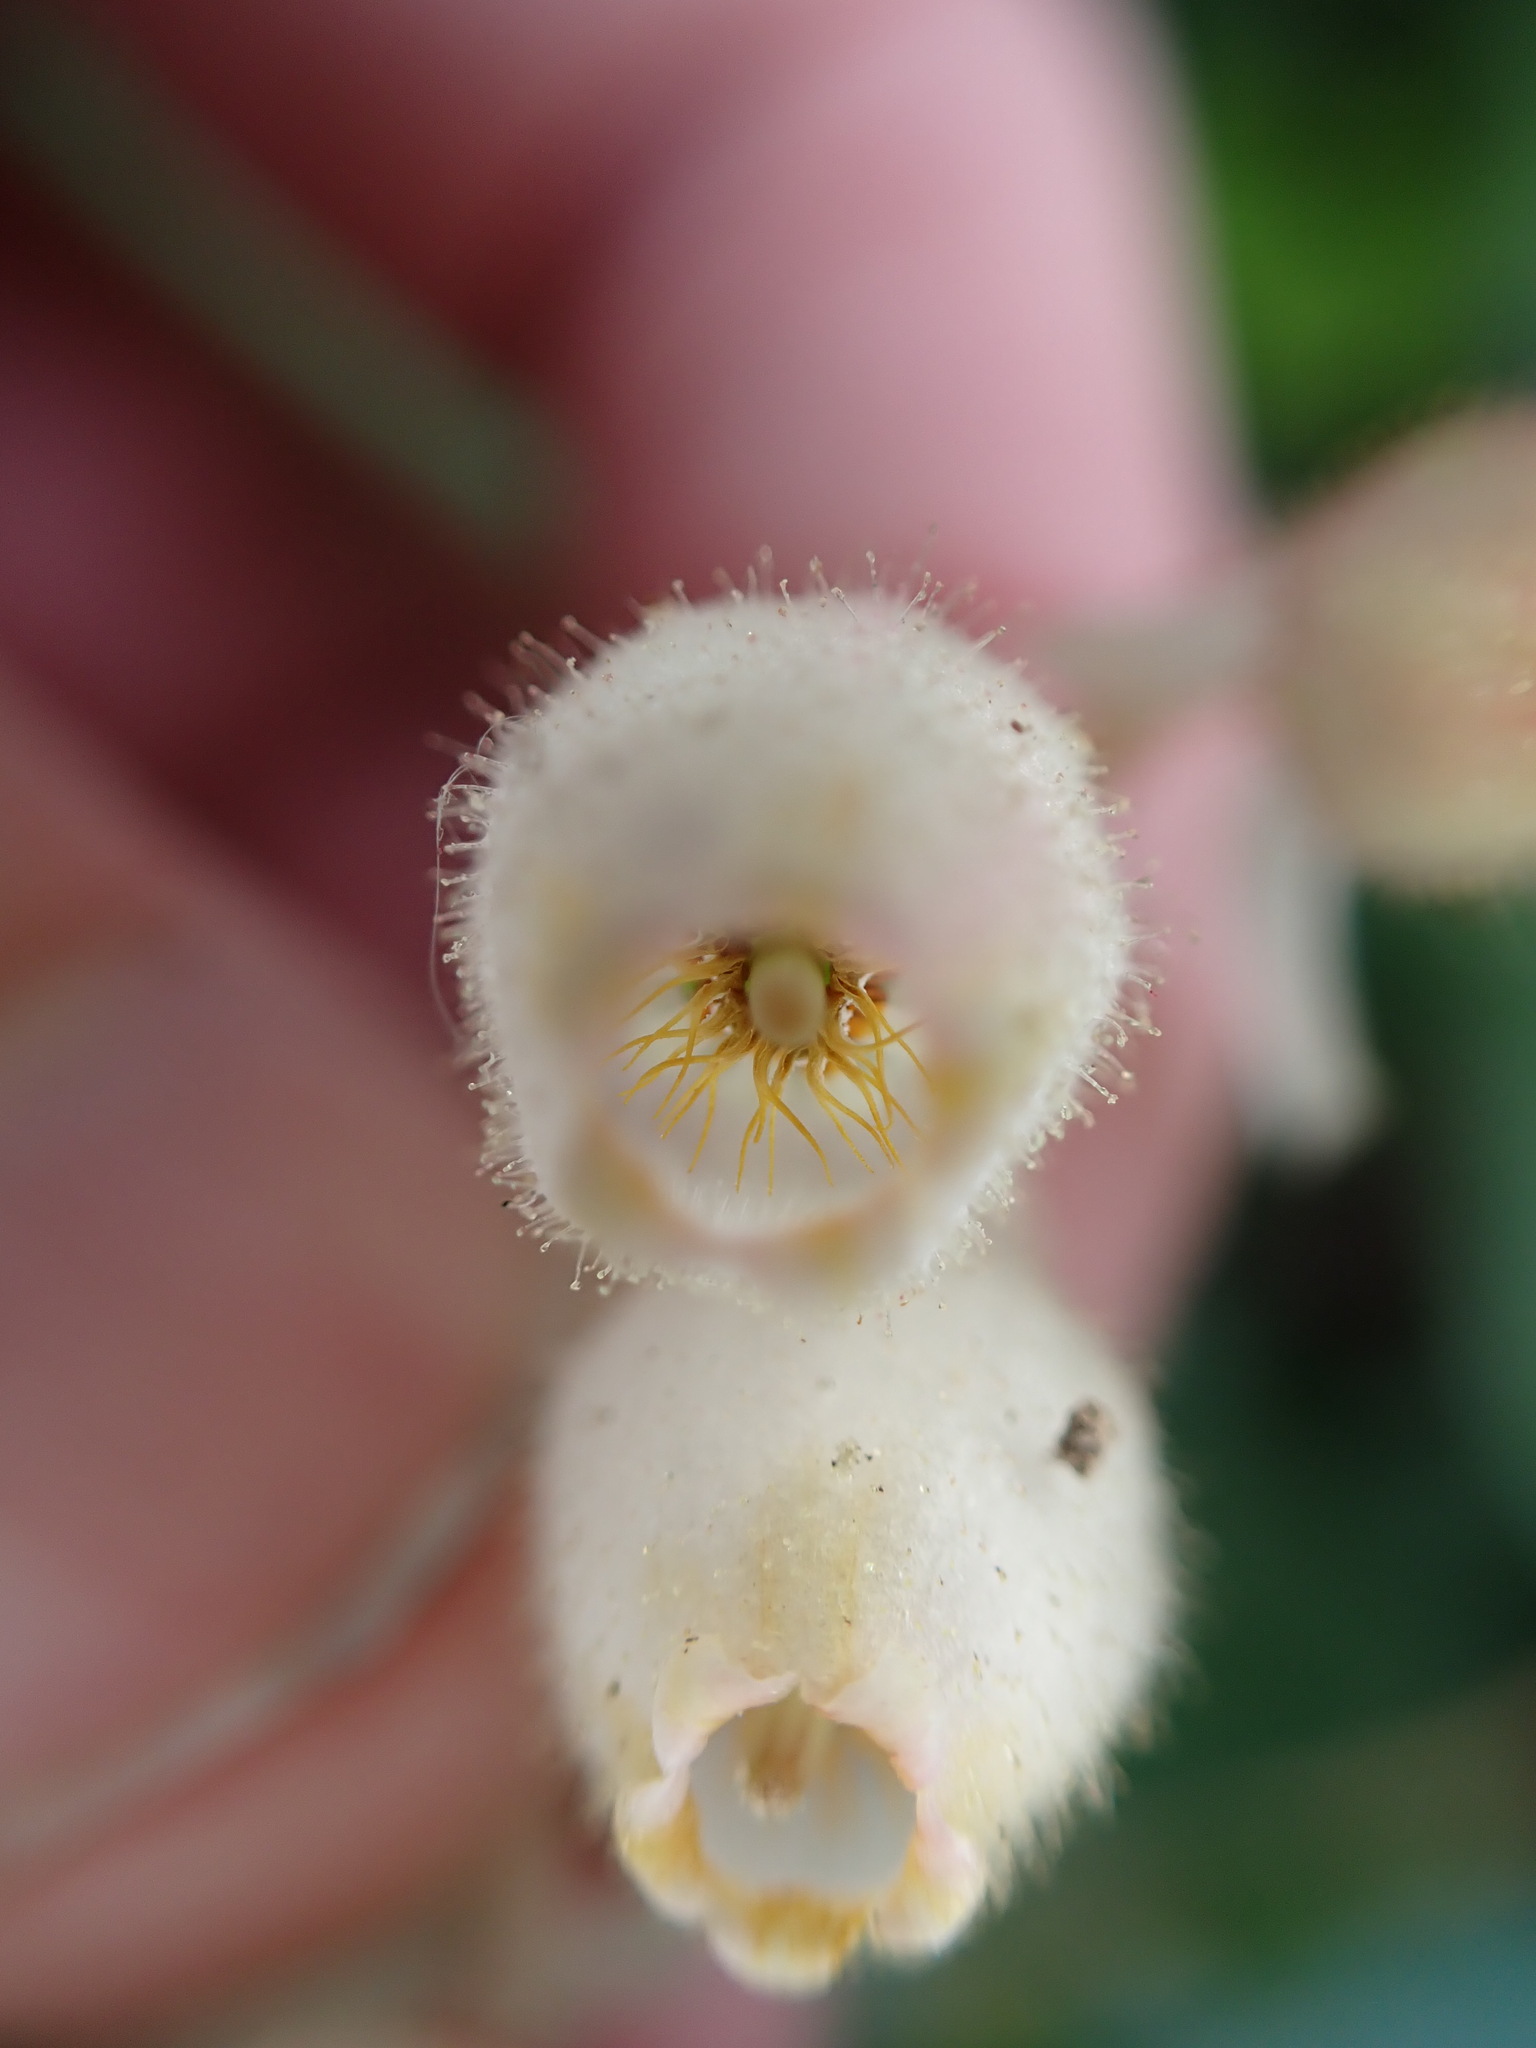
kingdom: Plantae
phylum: Tracheophyta
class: Magnoliopsida
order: Ericales
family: Ericaceae
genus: Gaultheria
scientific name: Gaultheria shallon
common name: Shallon
